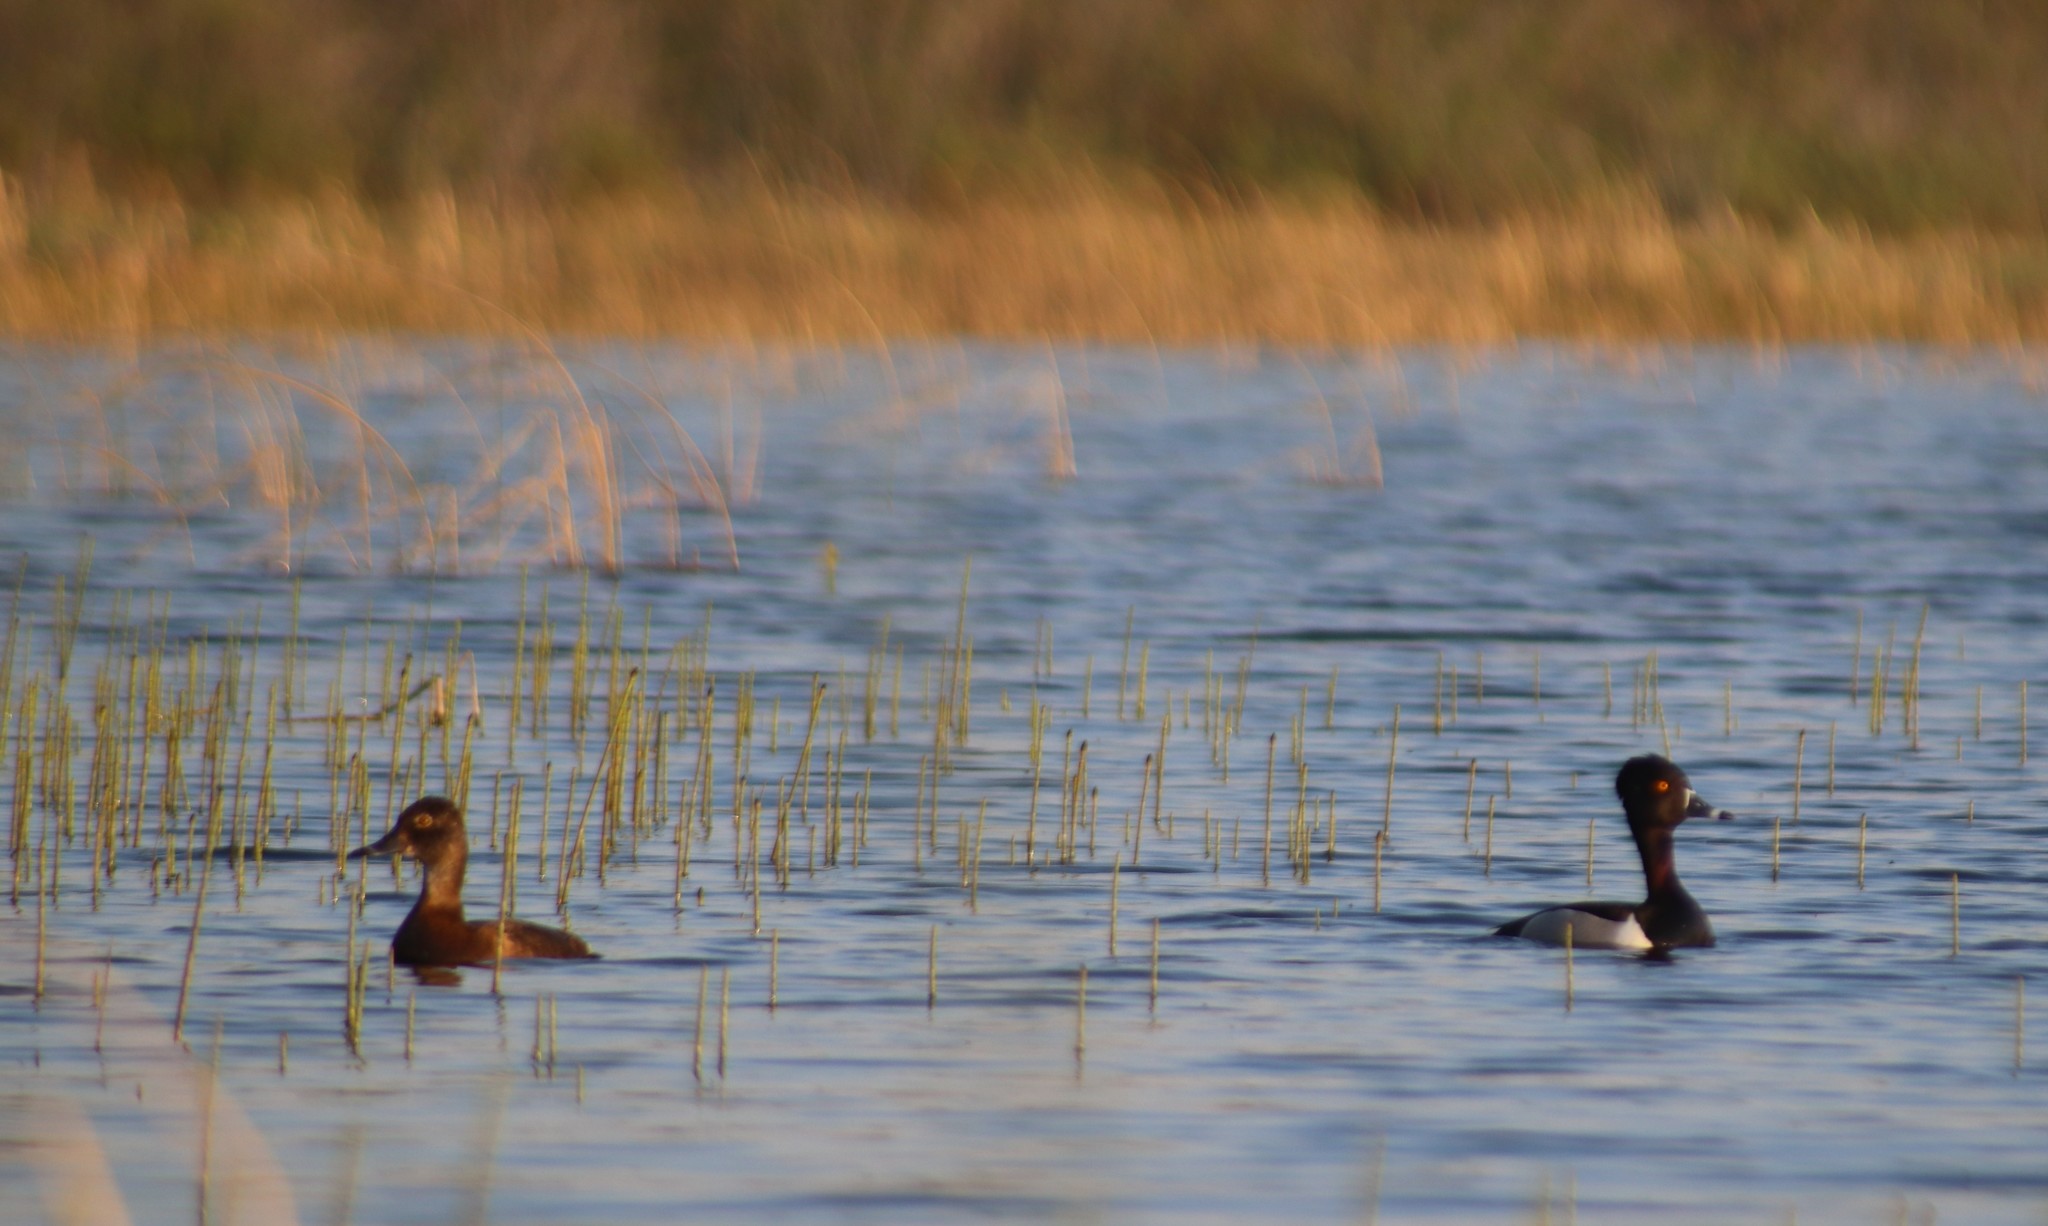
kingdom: Animalia
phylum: Chordata
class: Aves
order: Anseriformes
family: Anatidae
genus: Aythya
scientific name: Aythya collaris
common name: Ring-necked duck
